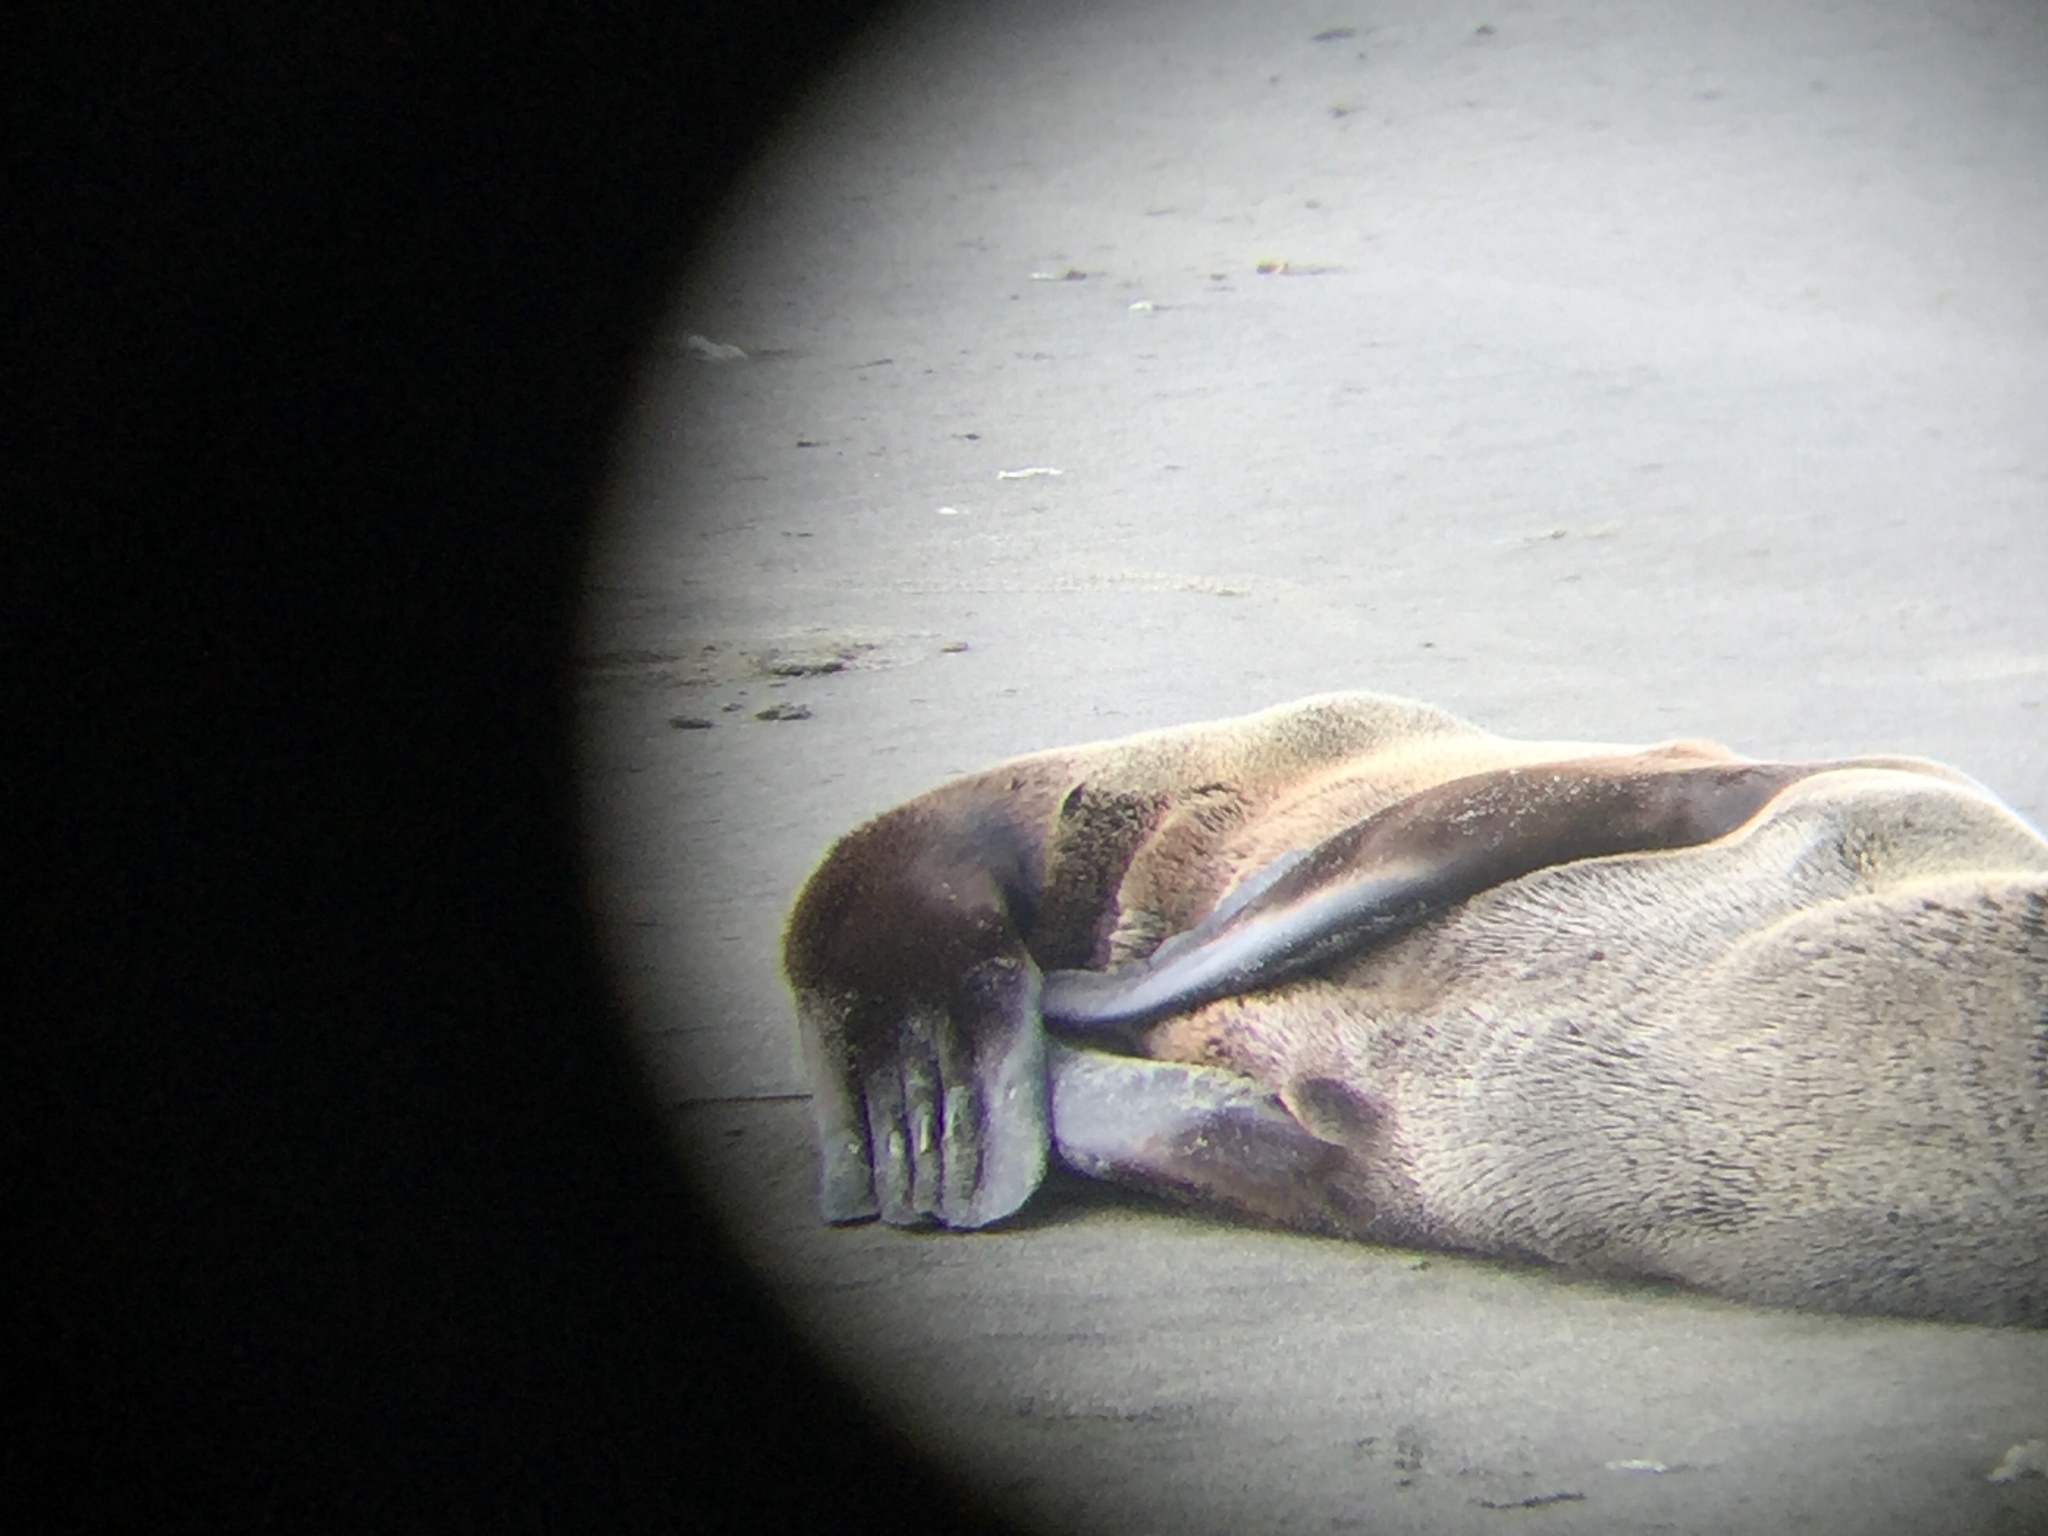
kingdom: Animalia
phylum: Chordata
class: Mammalia
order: Carnivora
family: Otariidae
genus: Arctocephalus
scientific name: Arctocephalus philippii
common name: Juan fernández fur seal
